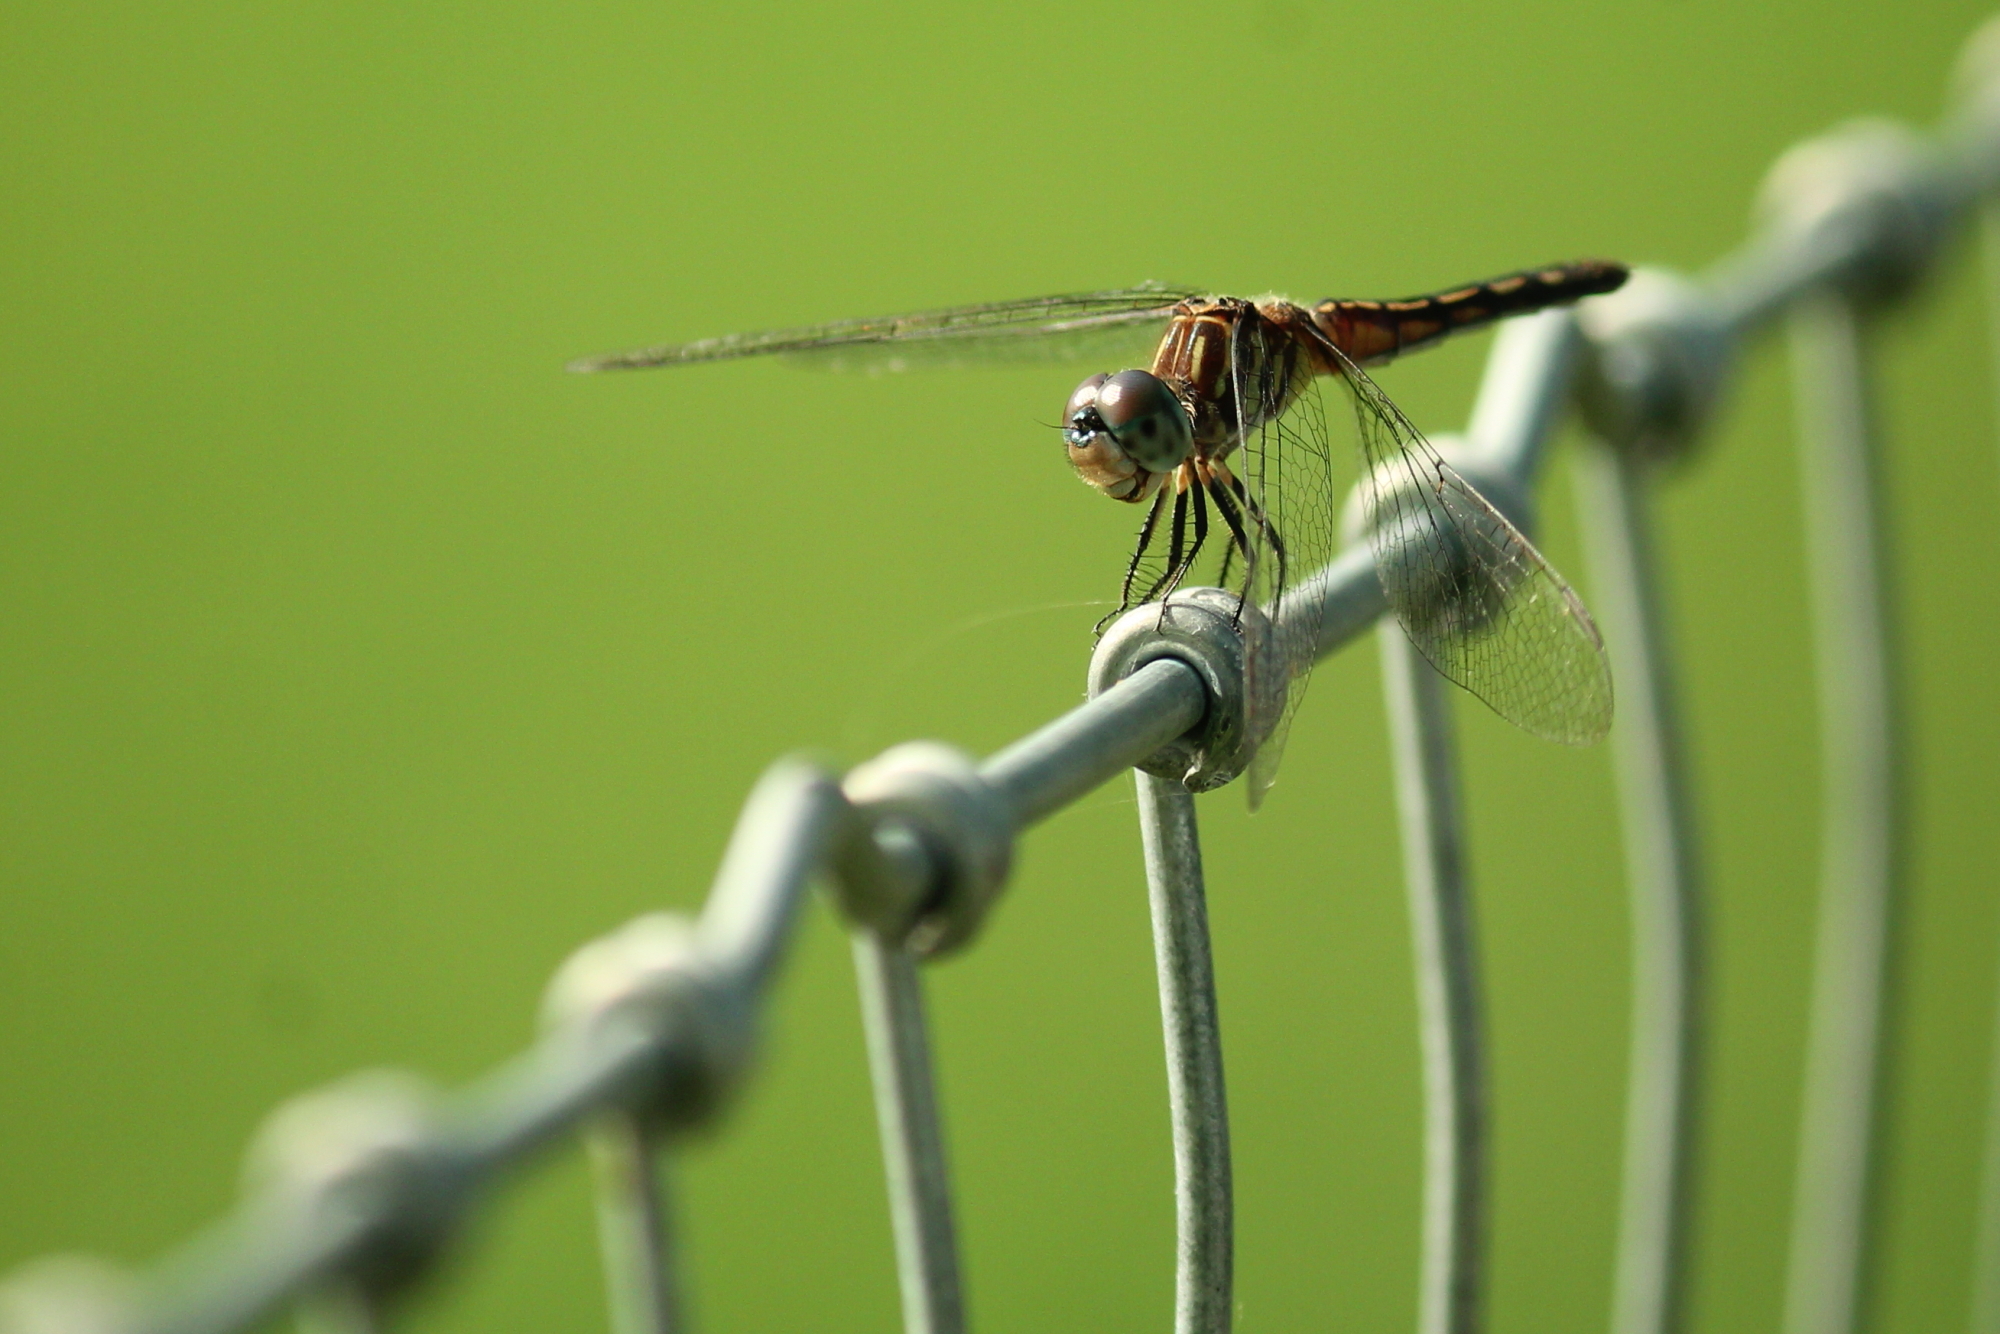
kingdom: Animalia
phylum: Arthropoda
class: Insecta
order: Odonata
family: Libellulidae
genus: Pachydiplax
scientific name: Pachydiplax longipennis
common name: Blue dasher
